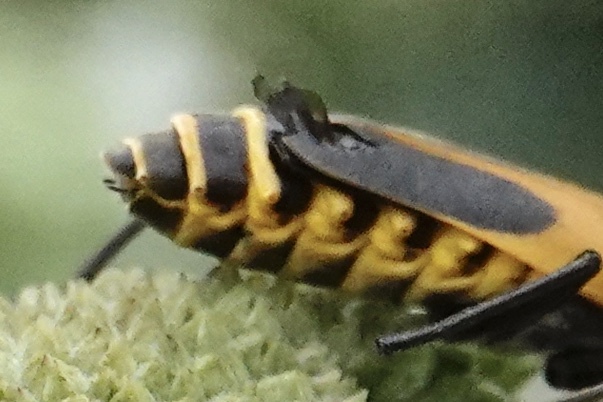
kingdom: Animalia
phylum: Arthropoda
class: Insecta
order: Coleoptera
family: Cantharidae
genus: Chauliognathus
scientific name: Chauliognathus pensylvanicus
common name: Goldenrod soldier beetle
